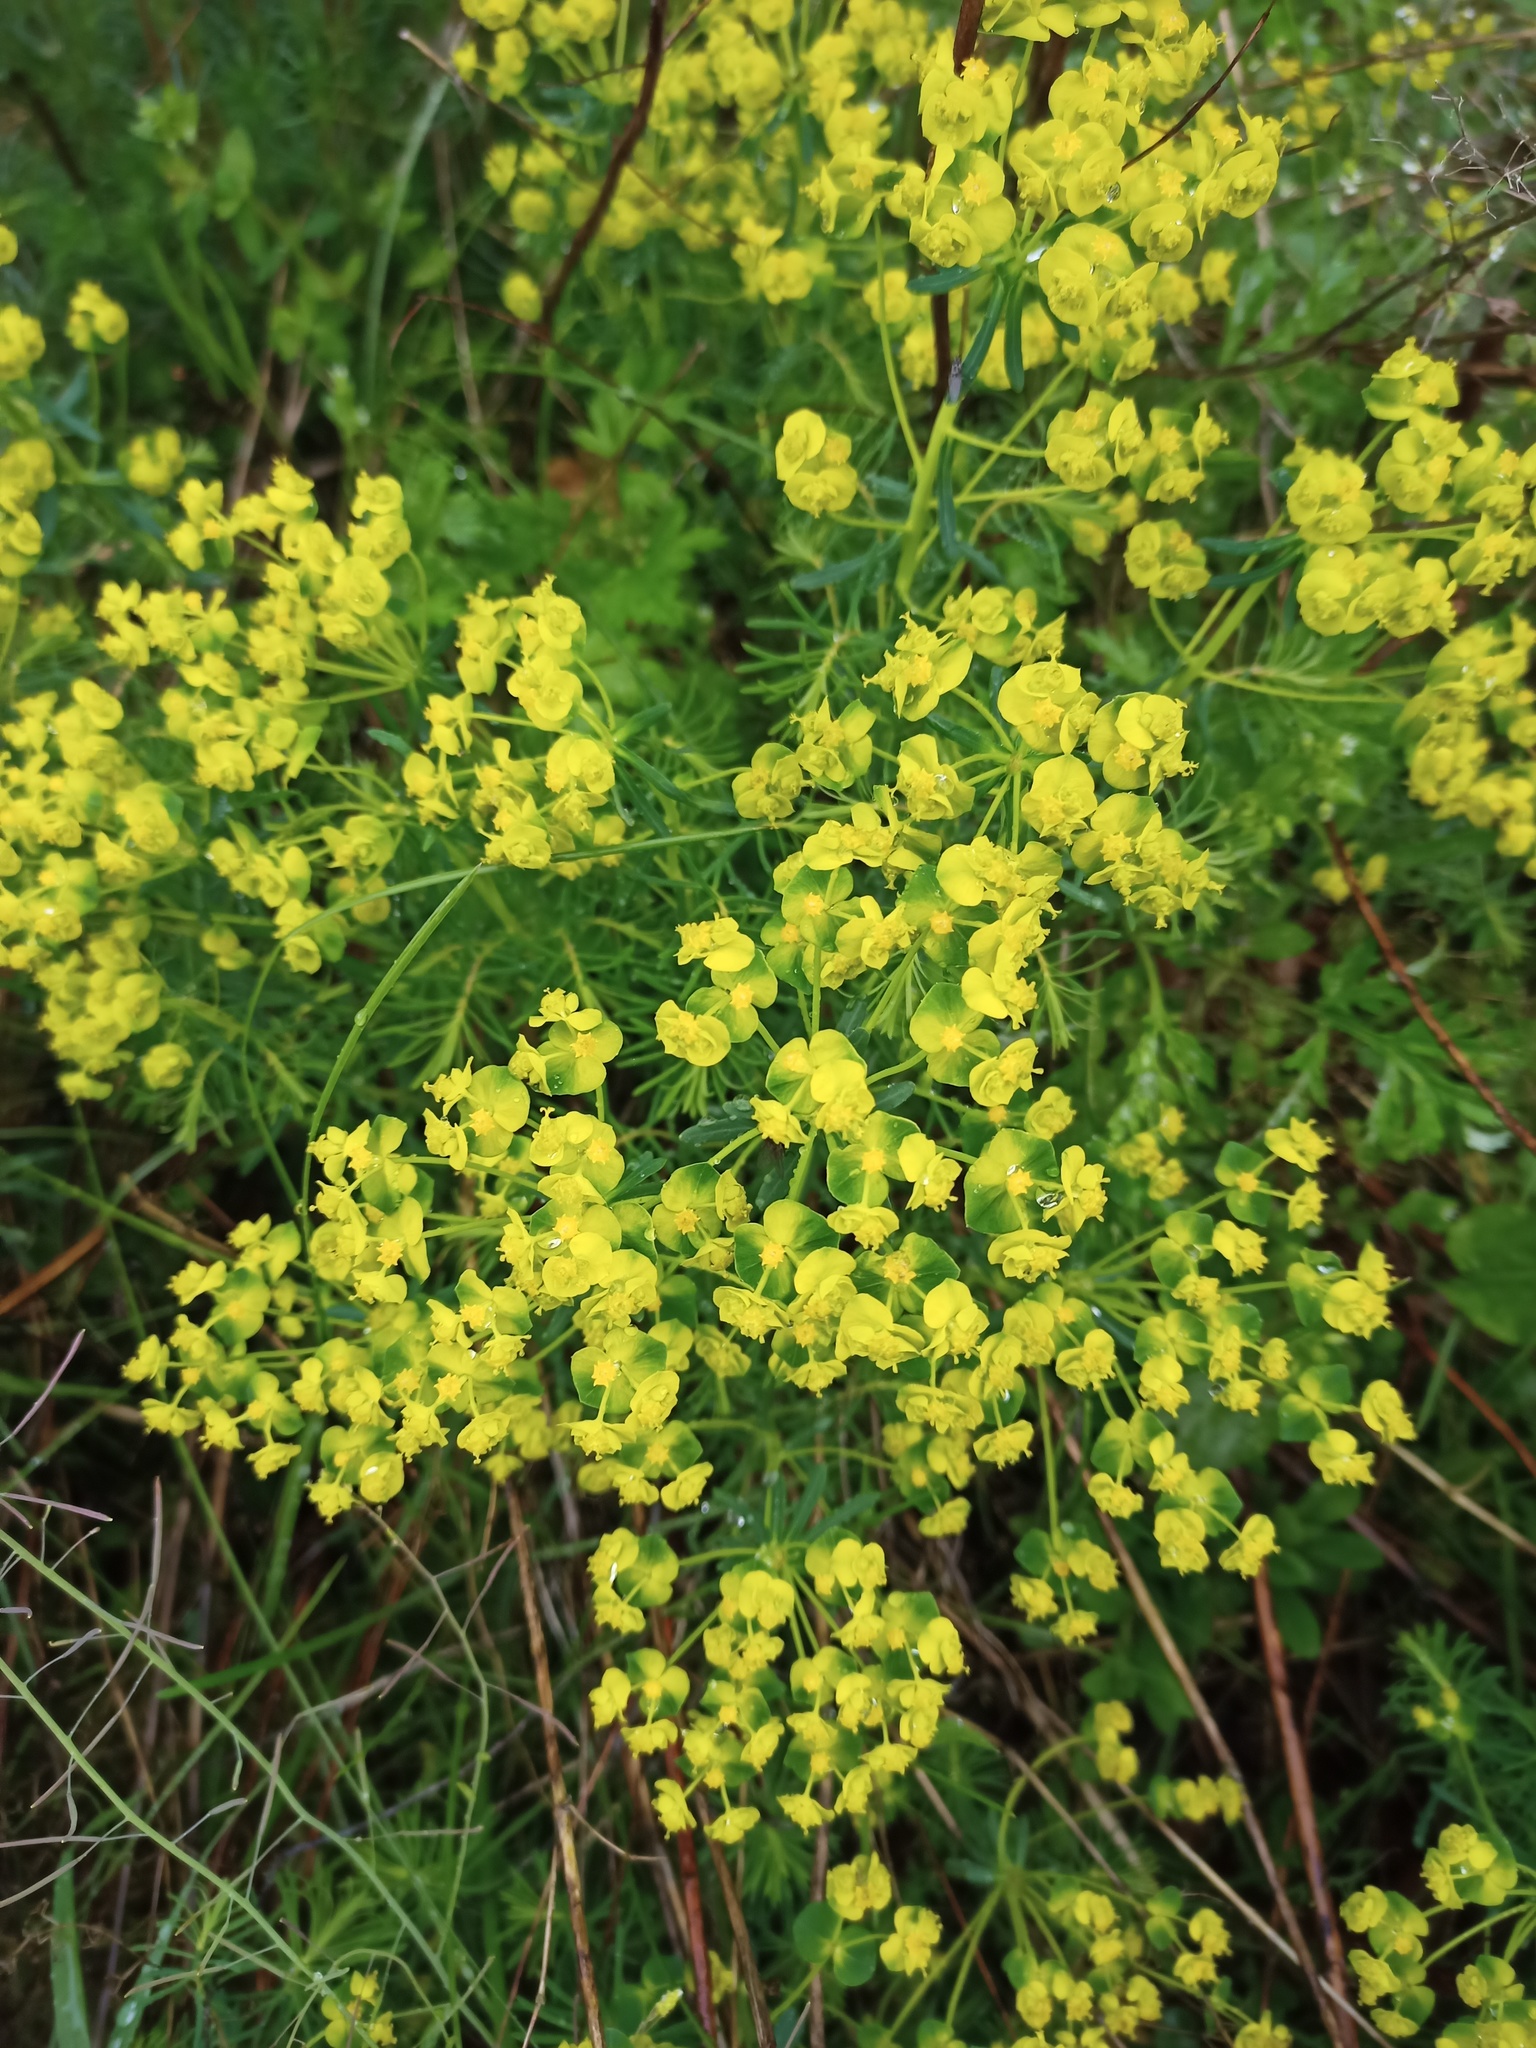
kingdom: Plantae
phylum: Tracheophyta
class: Magnoliopsida
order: Malpighiales
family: Euphorbiaceae
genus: Euphorbia
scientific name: Euphorbia cyparissias
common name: Cypress spurge
